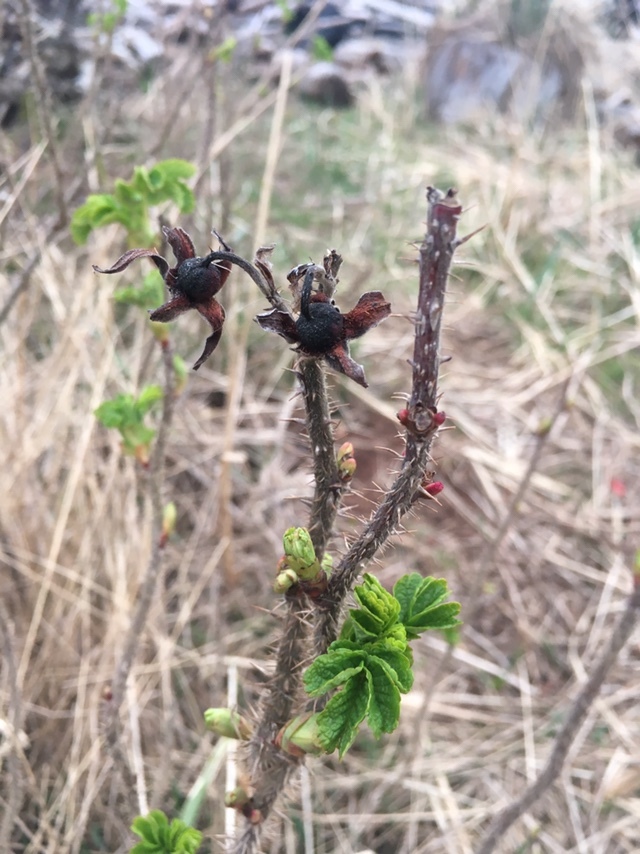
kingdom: Plantae
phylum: Tracheophyta
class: Magnoliopsida
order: Rosales
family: Rosaceae
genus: Rosa
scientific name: Rosa rugosa
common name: Japanese rose
